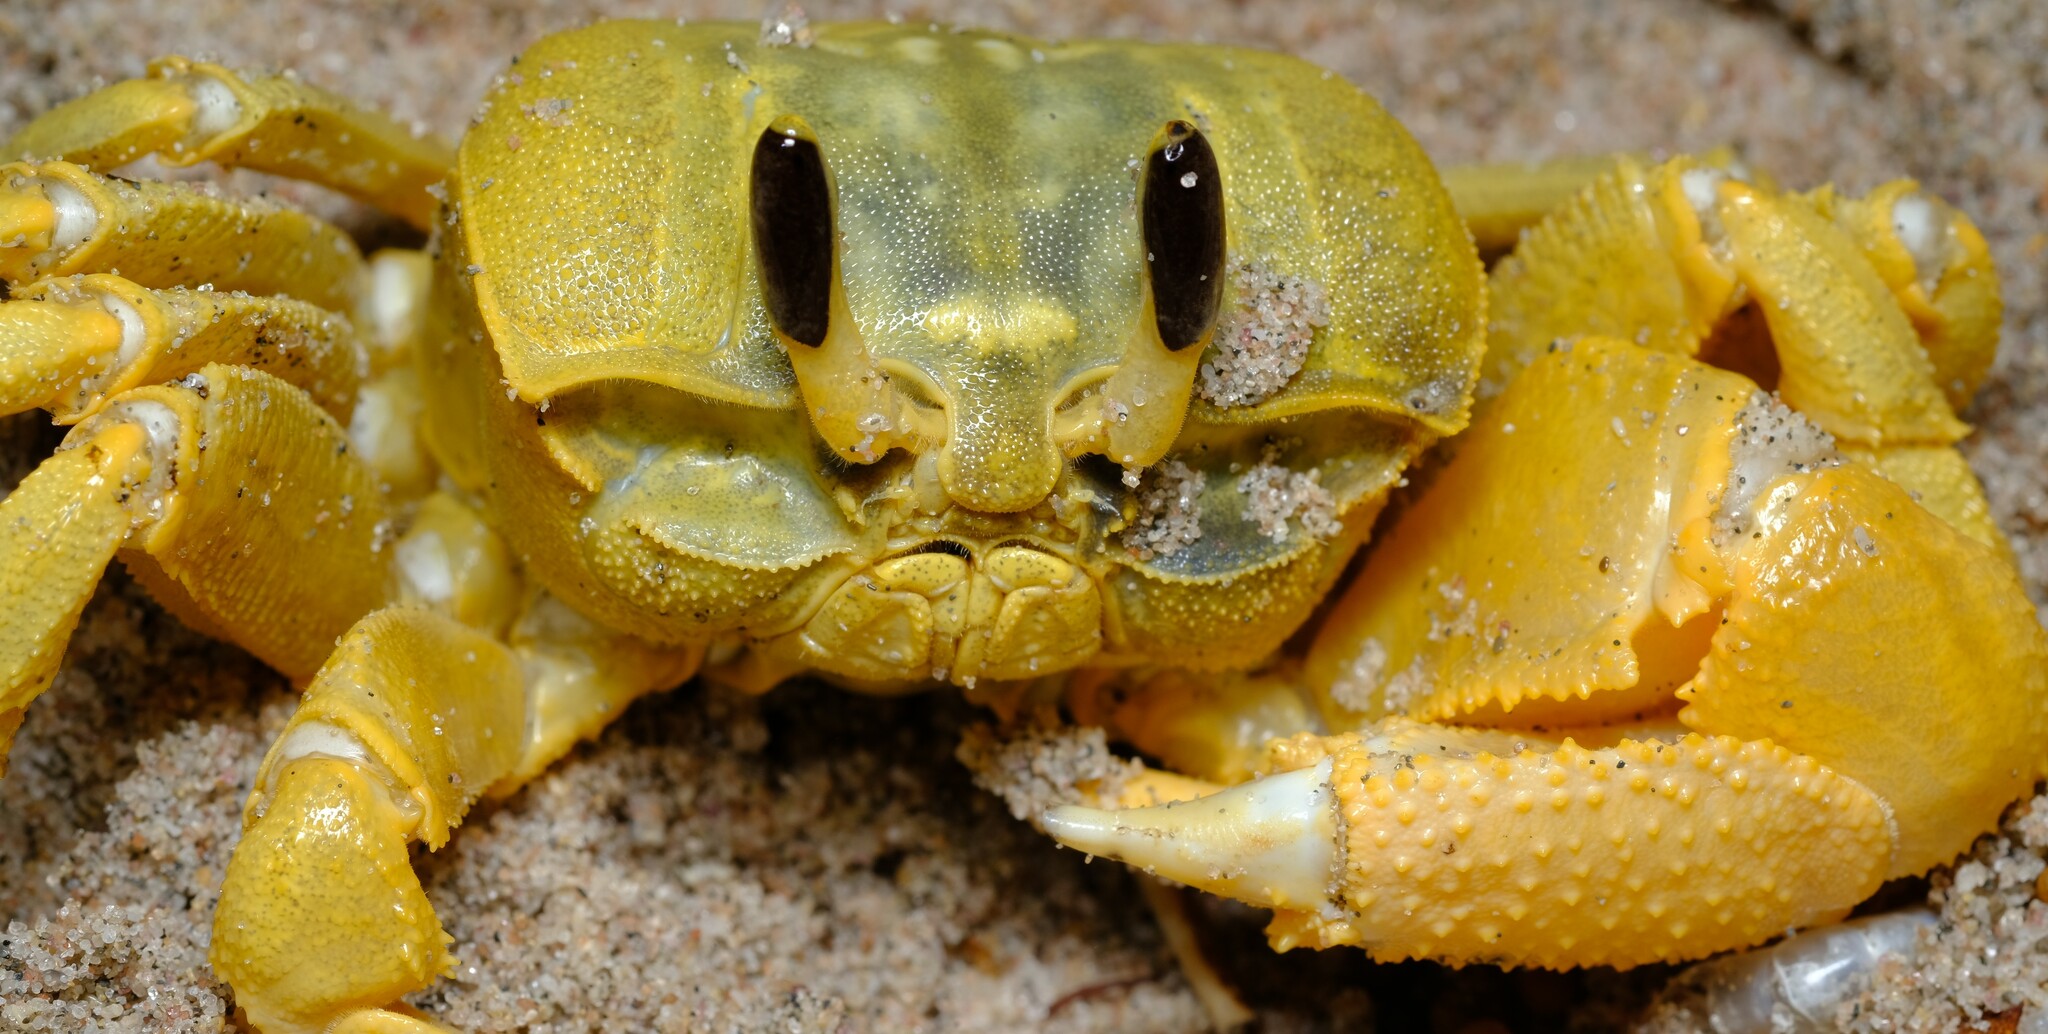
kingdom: Animalia
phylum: Arthropoda
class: Malacostraca
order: Decapoda
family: Ocypodidae
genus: Ocypode
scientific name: Ocypode convexa
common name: Golden ghost crab
